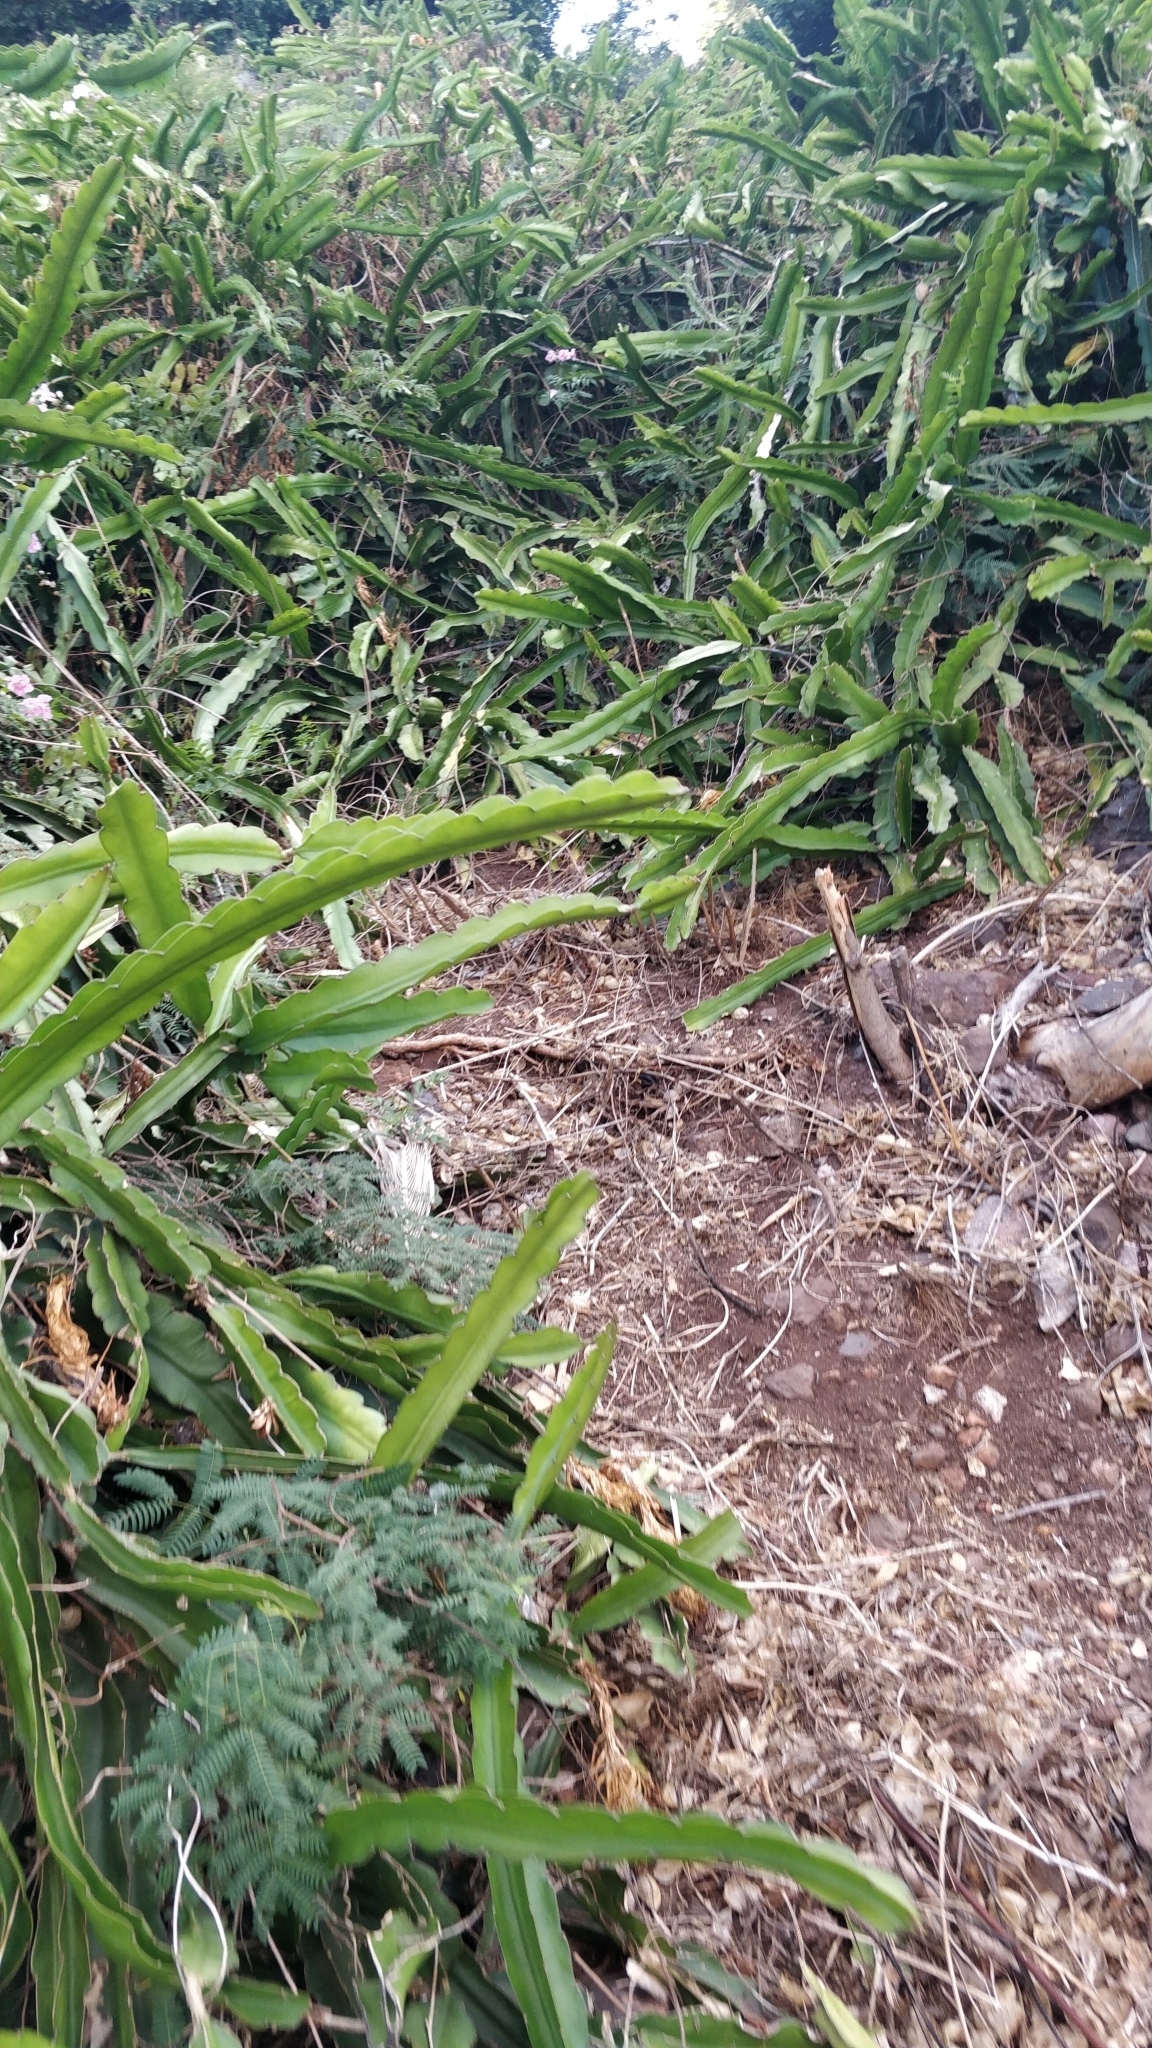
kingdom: Plantae
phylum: Tracheophyta
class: Magnoliopsida
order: Caryophyllales
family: Cactaceae
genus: Selenicereus
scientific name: Selenicereus undatus
